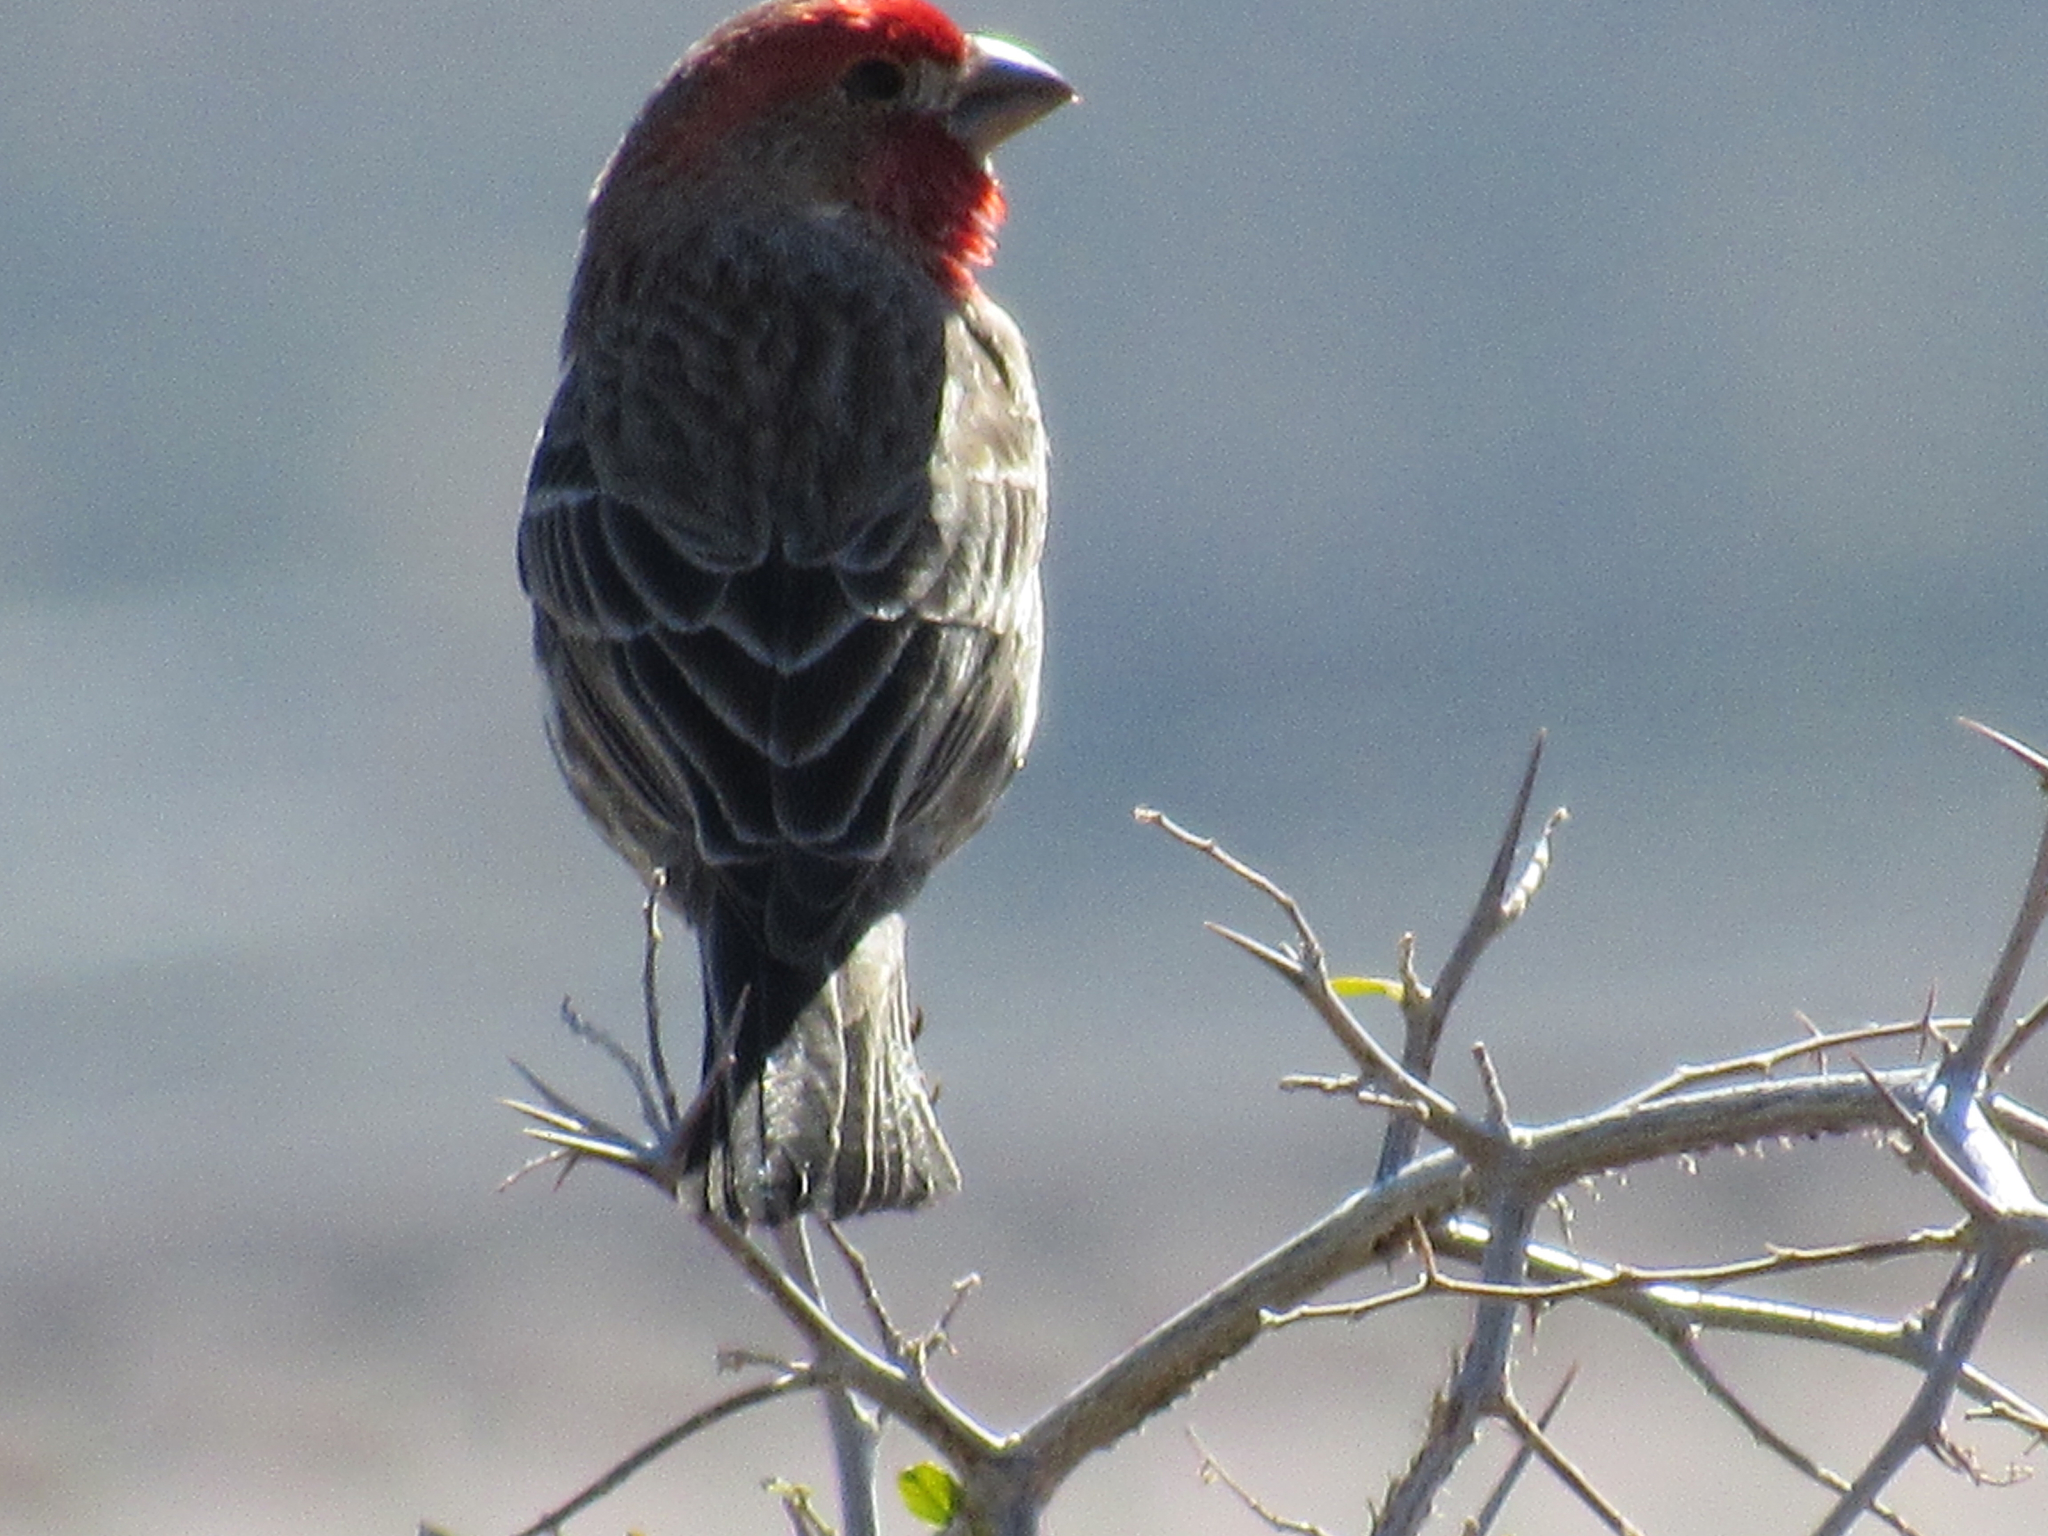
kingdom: Animalia
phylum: Chordata
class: Aves
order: Passeriformes
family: Fringillidae
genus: Haemorhous
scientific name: Haemorhous mexicanus
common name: House finch
